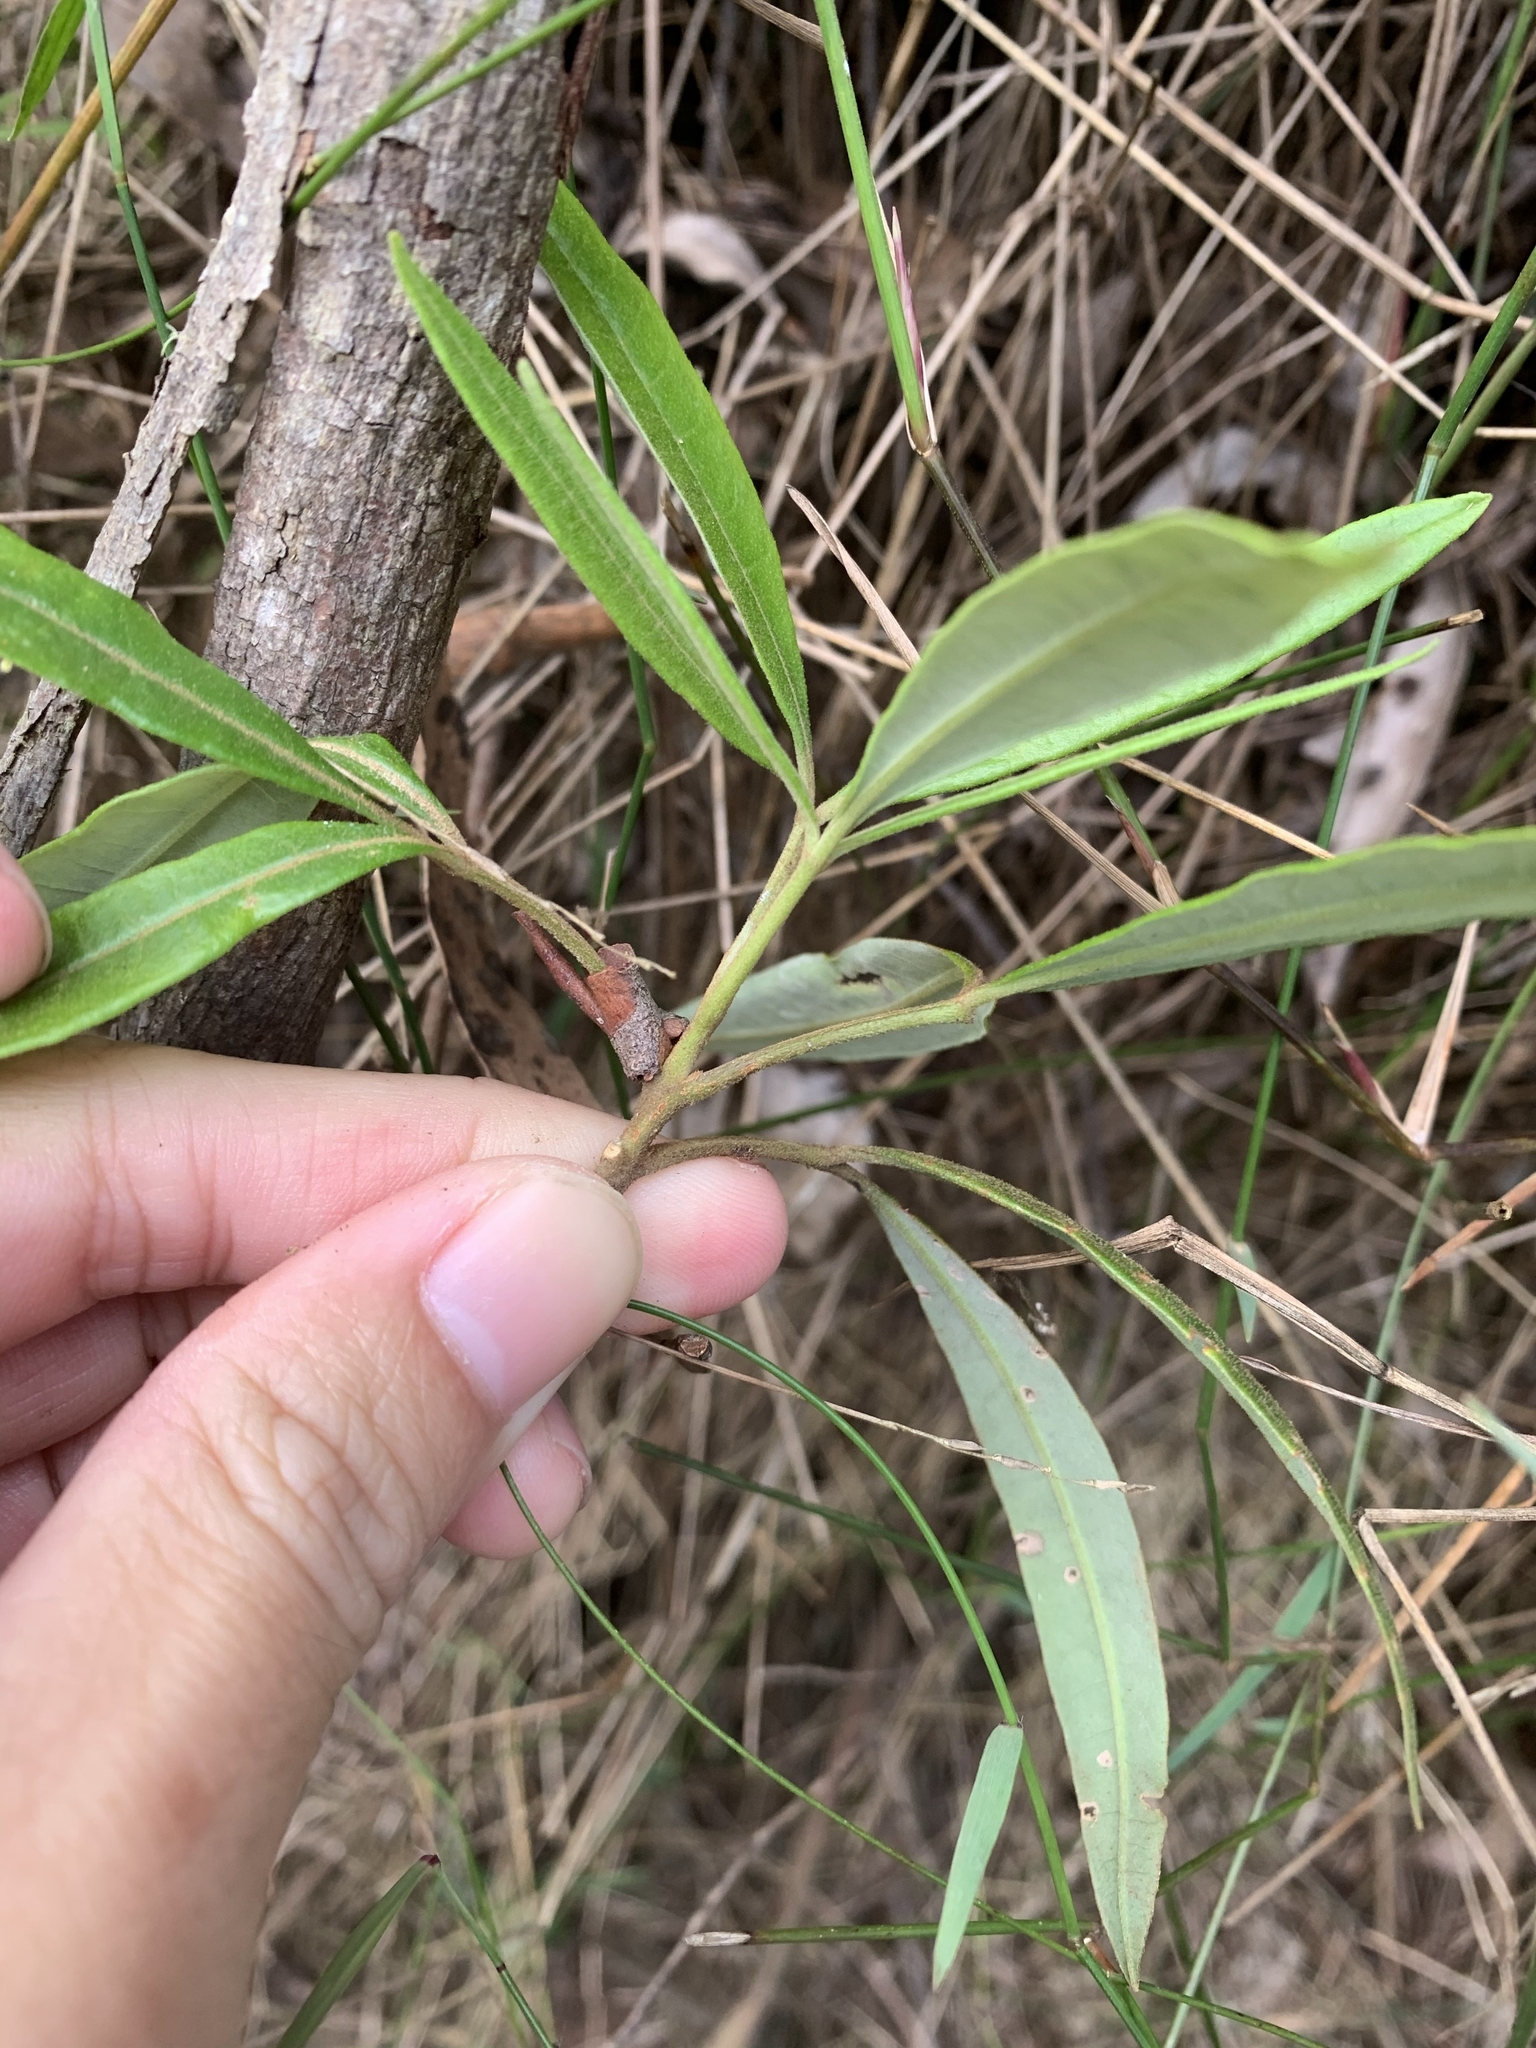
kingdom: Plantae
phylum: Tracheophyta
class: Magnoliopsida
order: Sapindales
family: Rutaceae
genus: Zieria
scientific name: Zieria arborescens
